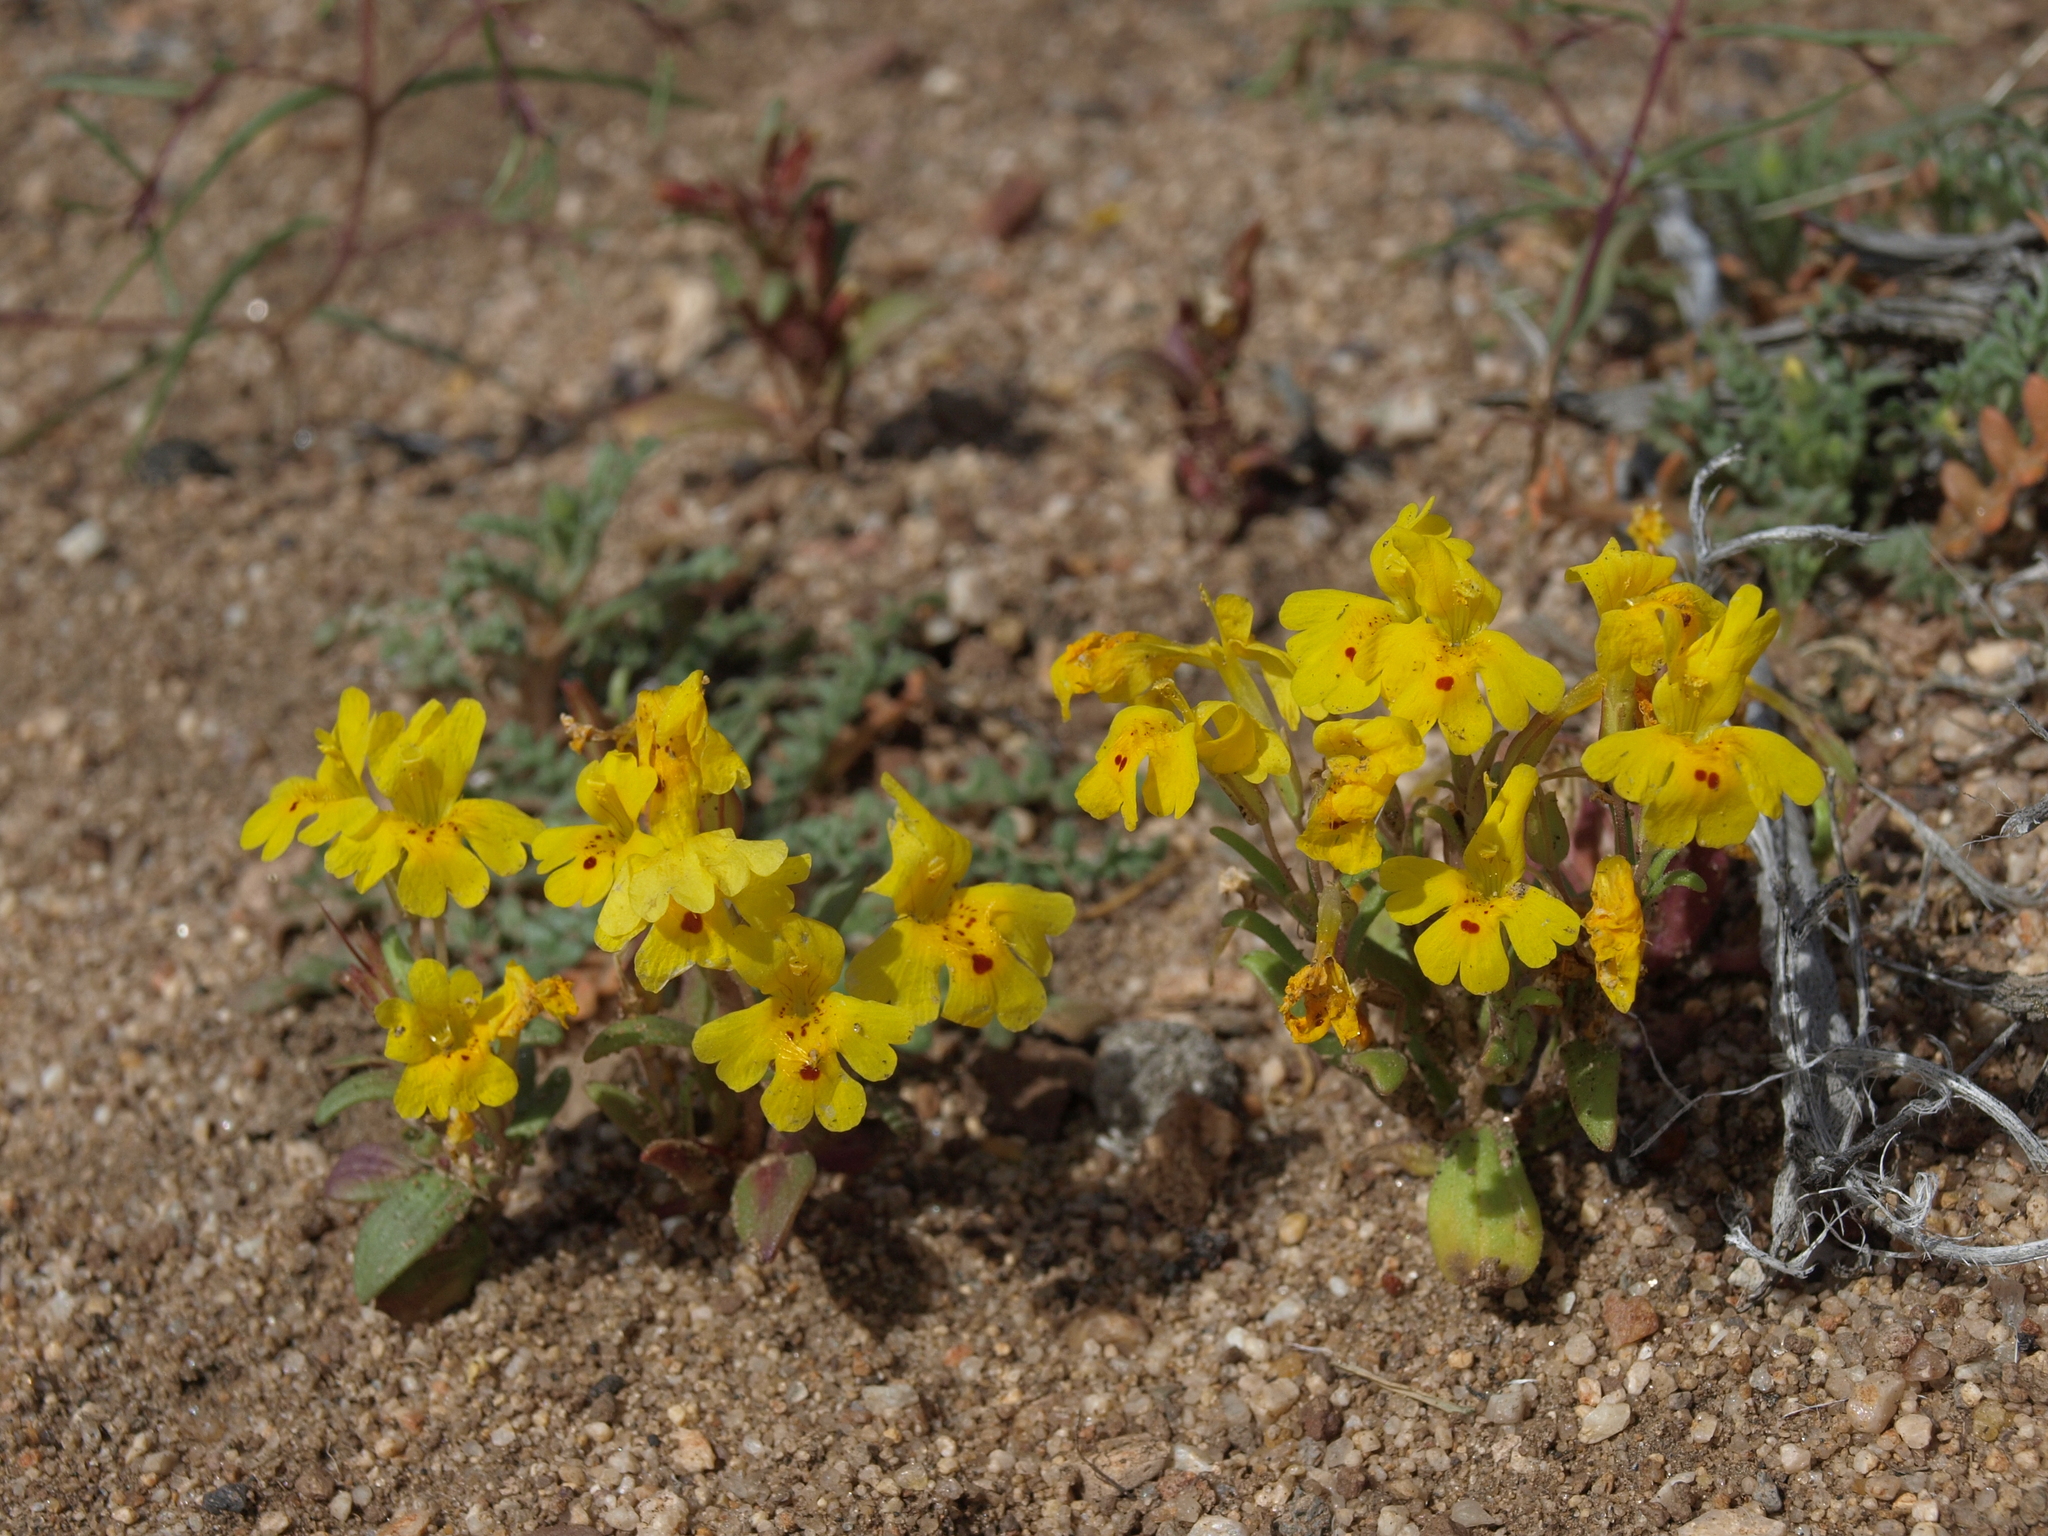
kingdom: Plantae
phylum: Tracheophyta
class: Magnoliopsida
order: Lamiales
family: Phrymaceae
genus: Erythranthe
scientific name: Erythranthe carsonensis
